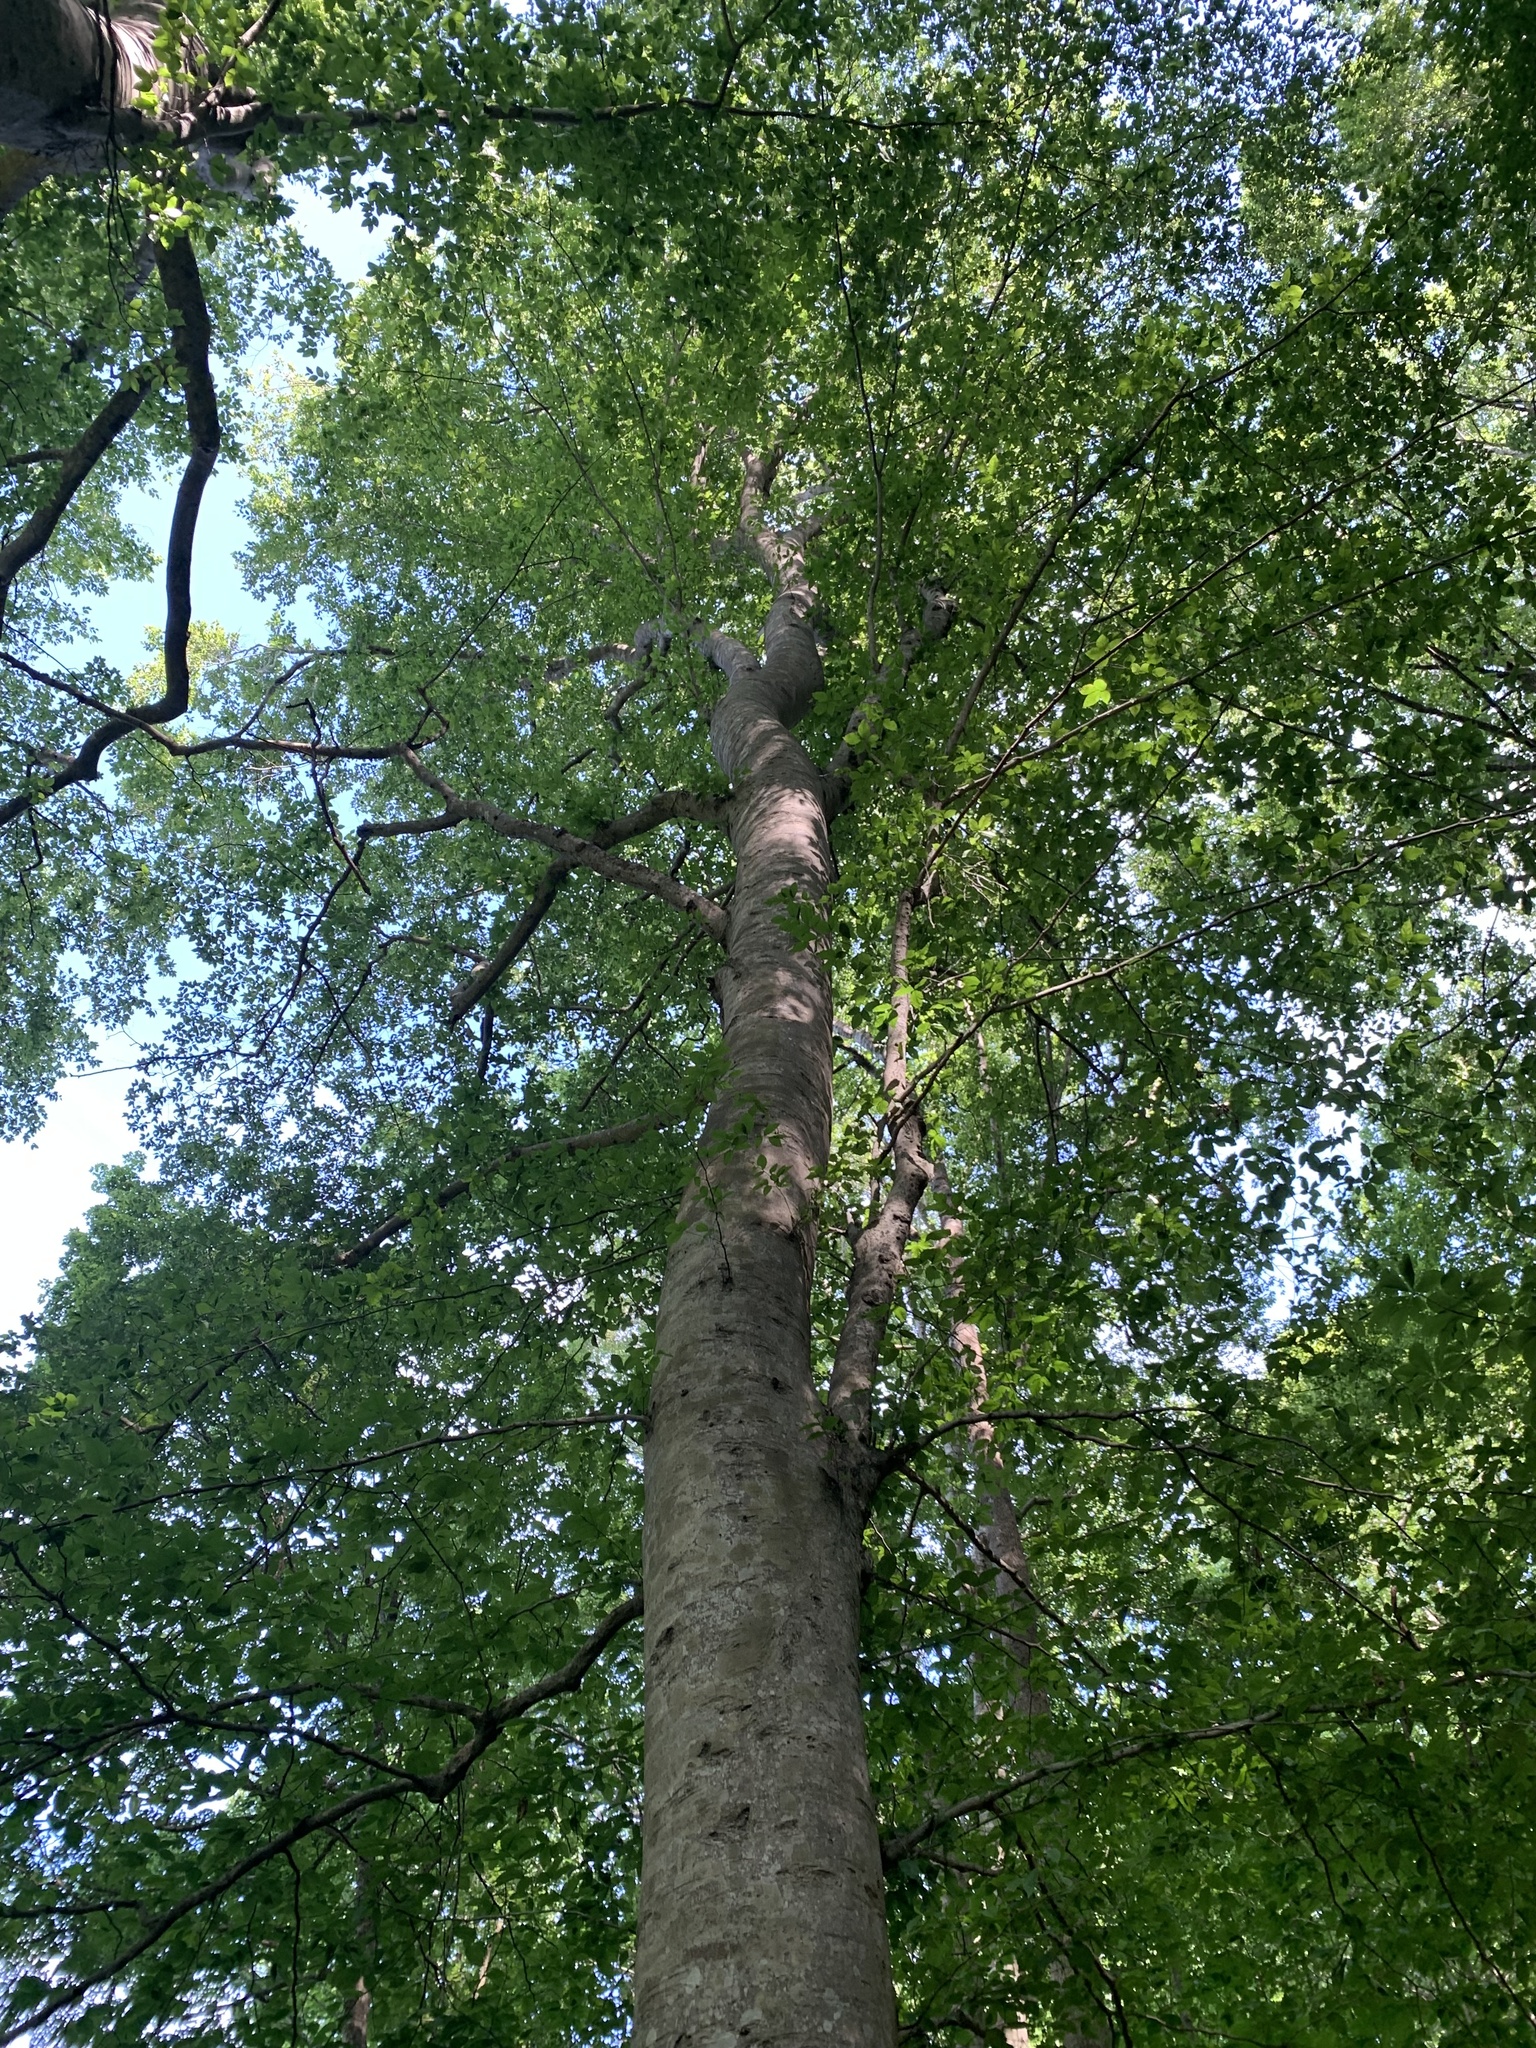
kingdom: Plantae
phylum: Tracheophyta
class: Magnoliopsida
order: Fagales
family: Fagaceae
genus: Fagus
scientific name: Fagus grandifolia
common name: American beech
